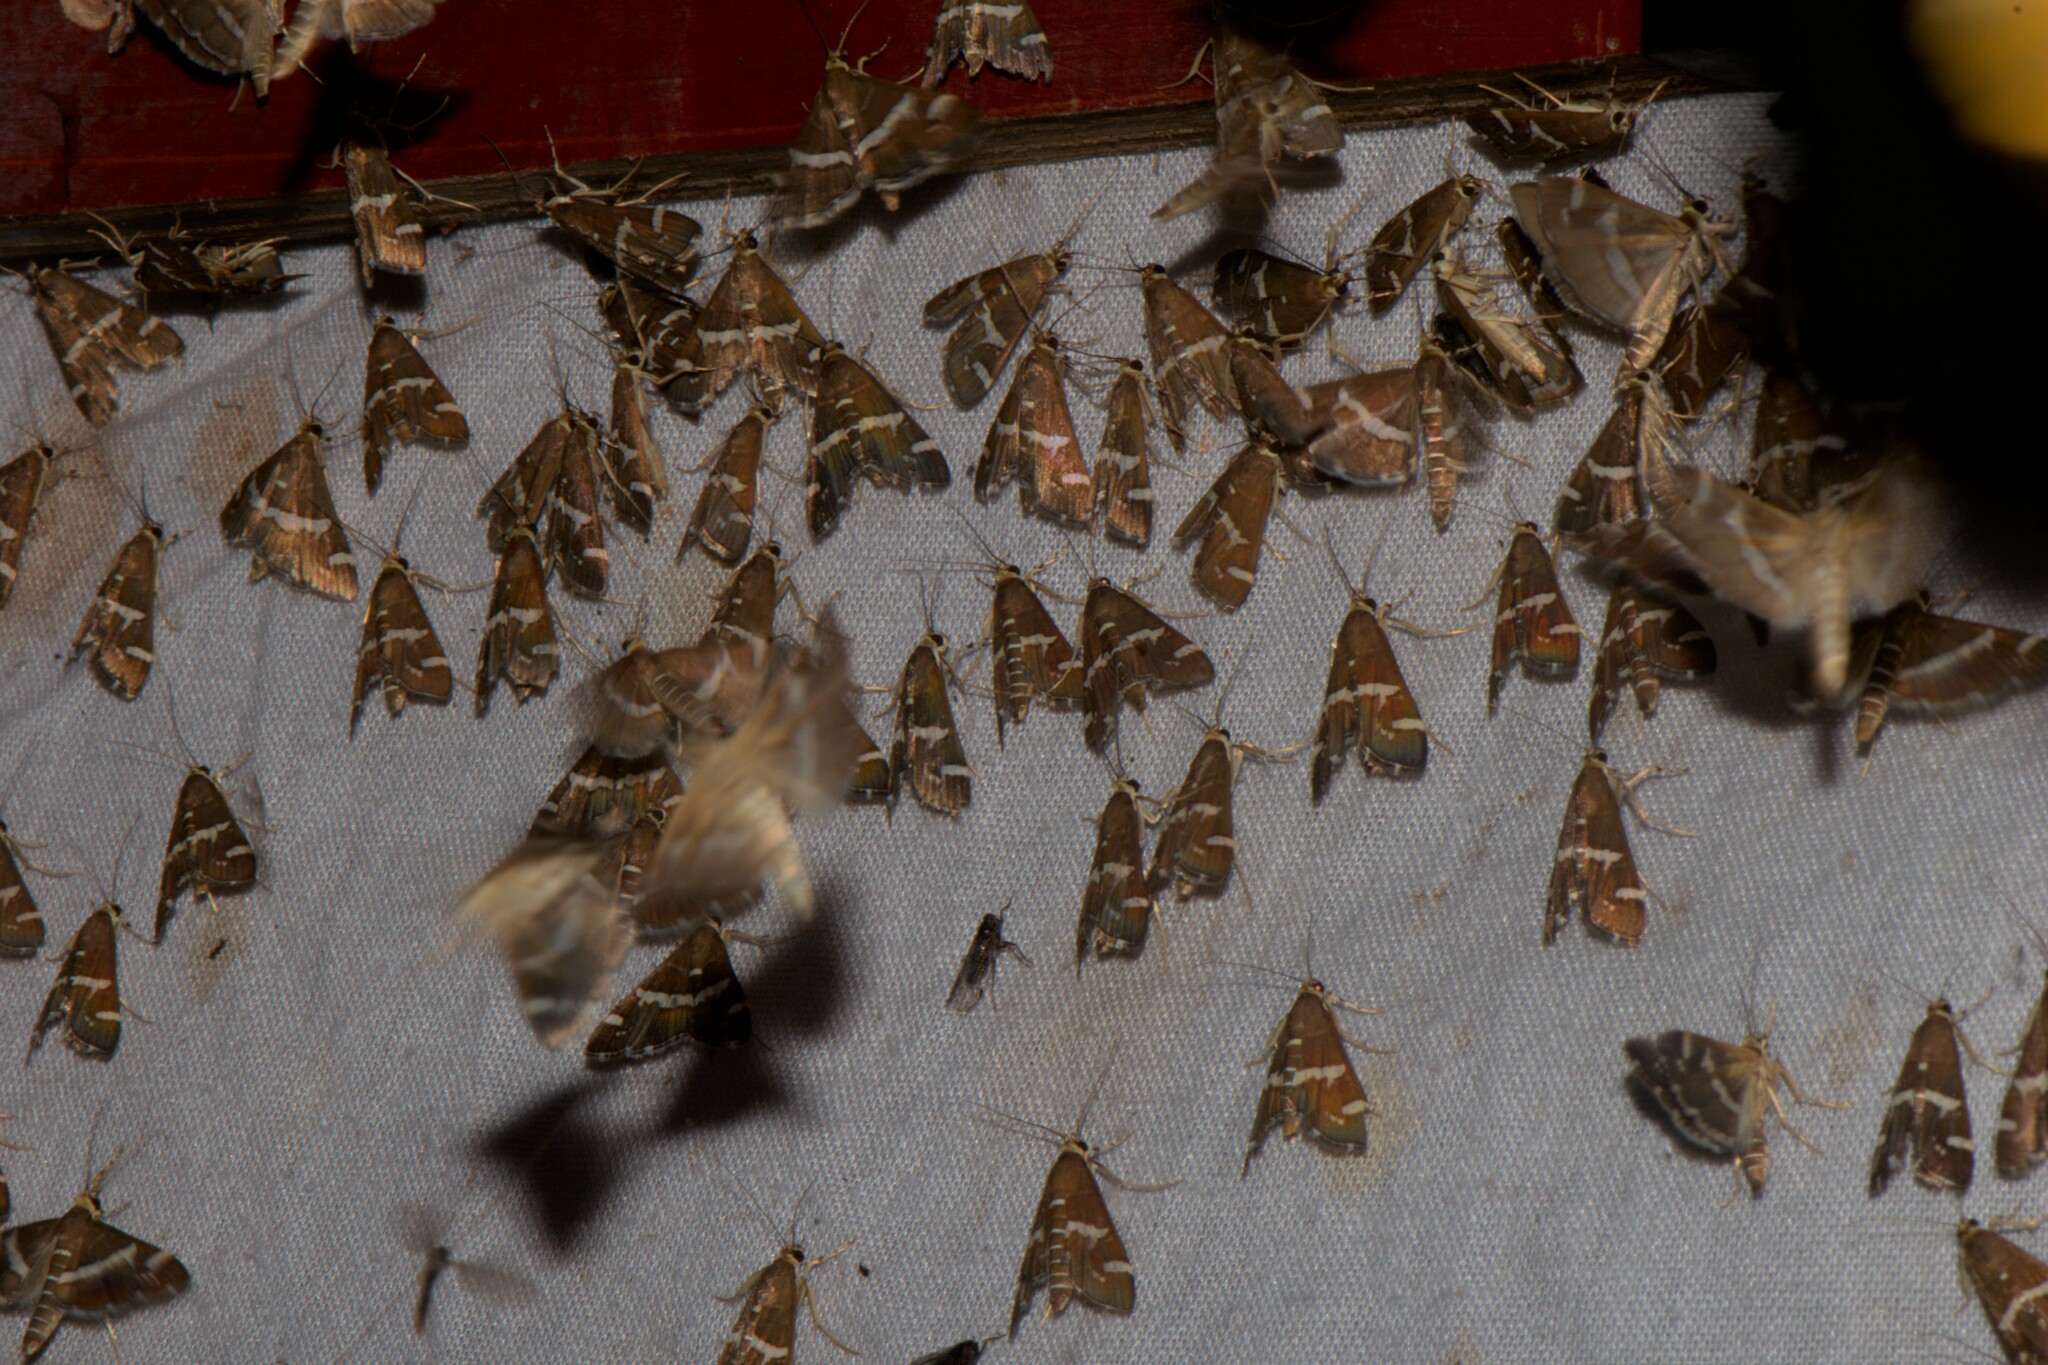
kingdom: Animalia
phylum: Arthropoda
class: Insecta
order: Lepidoptera
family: Crambidae
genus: Spoladea
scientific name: Spoladea recurvalis
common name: Beet webworm moth
